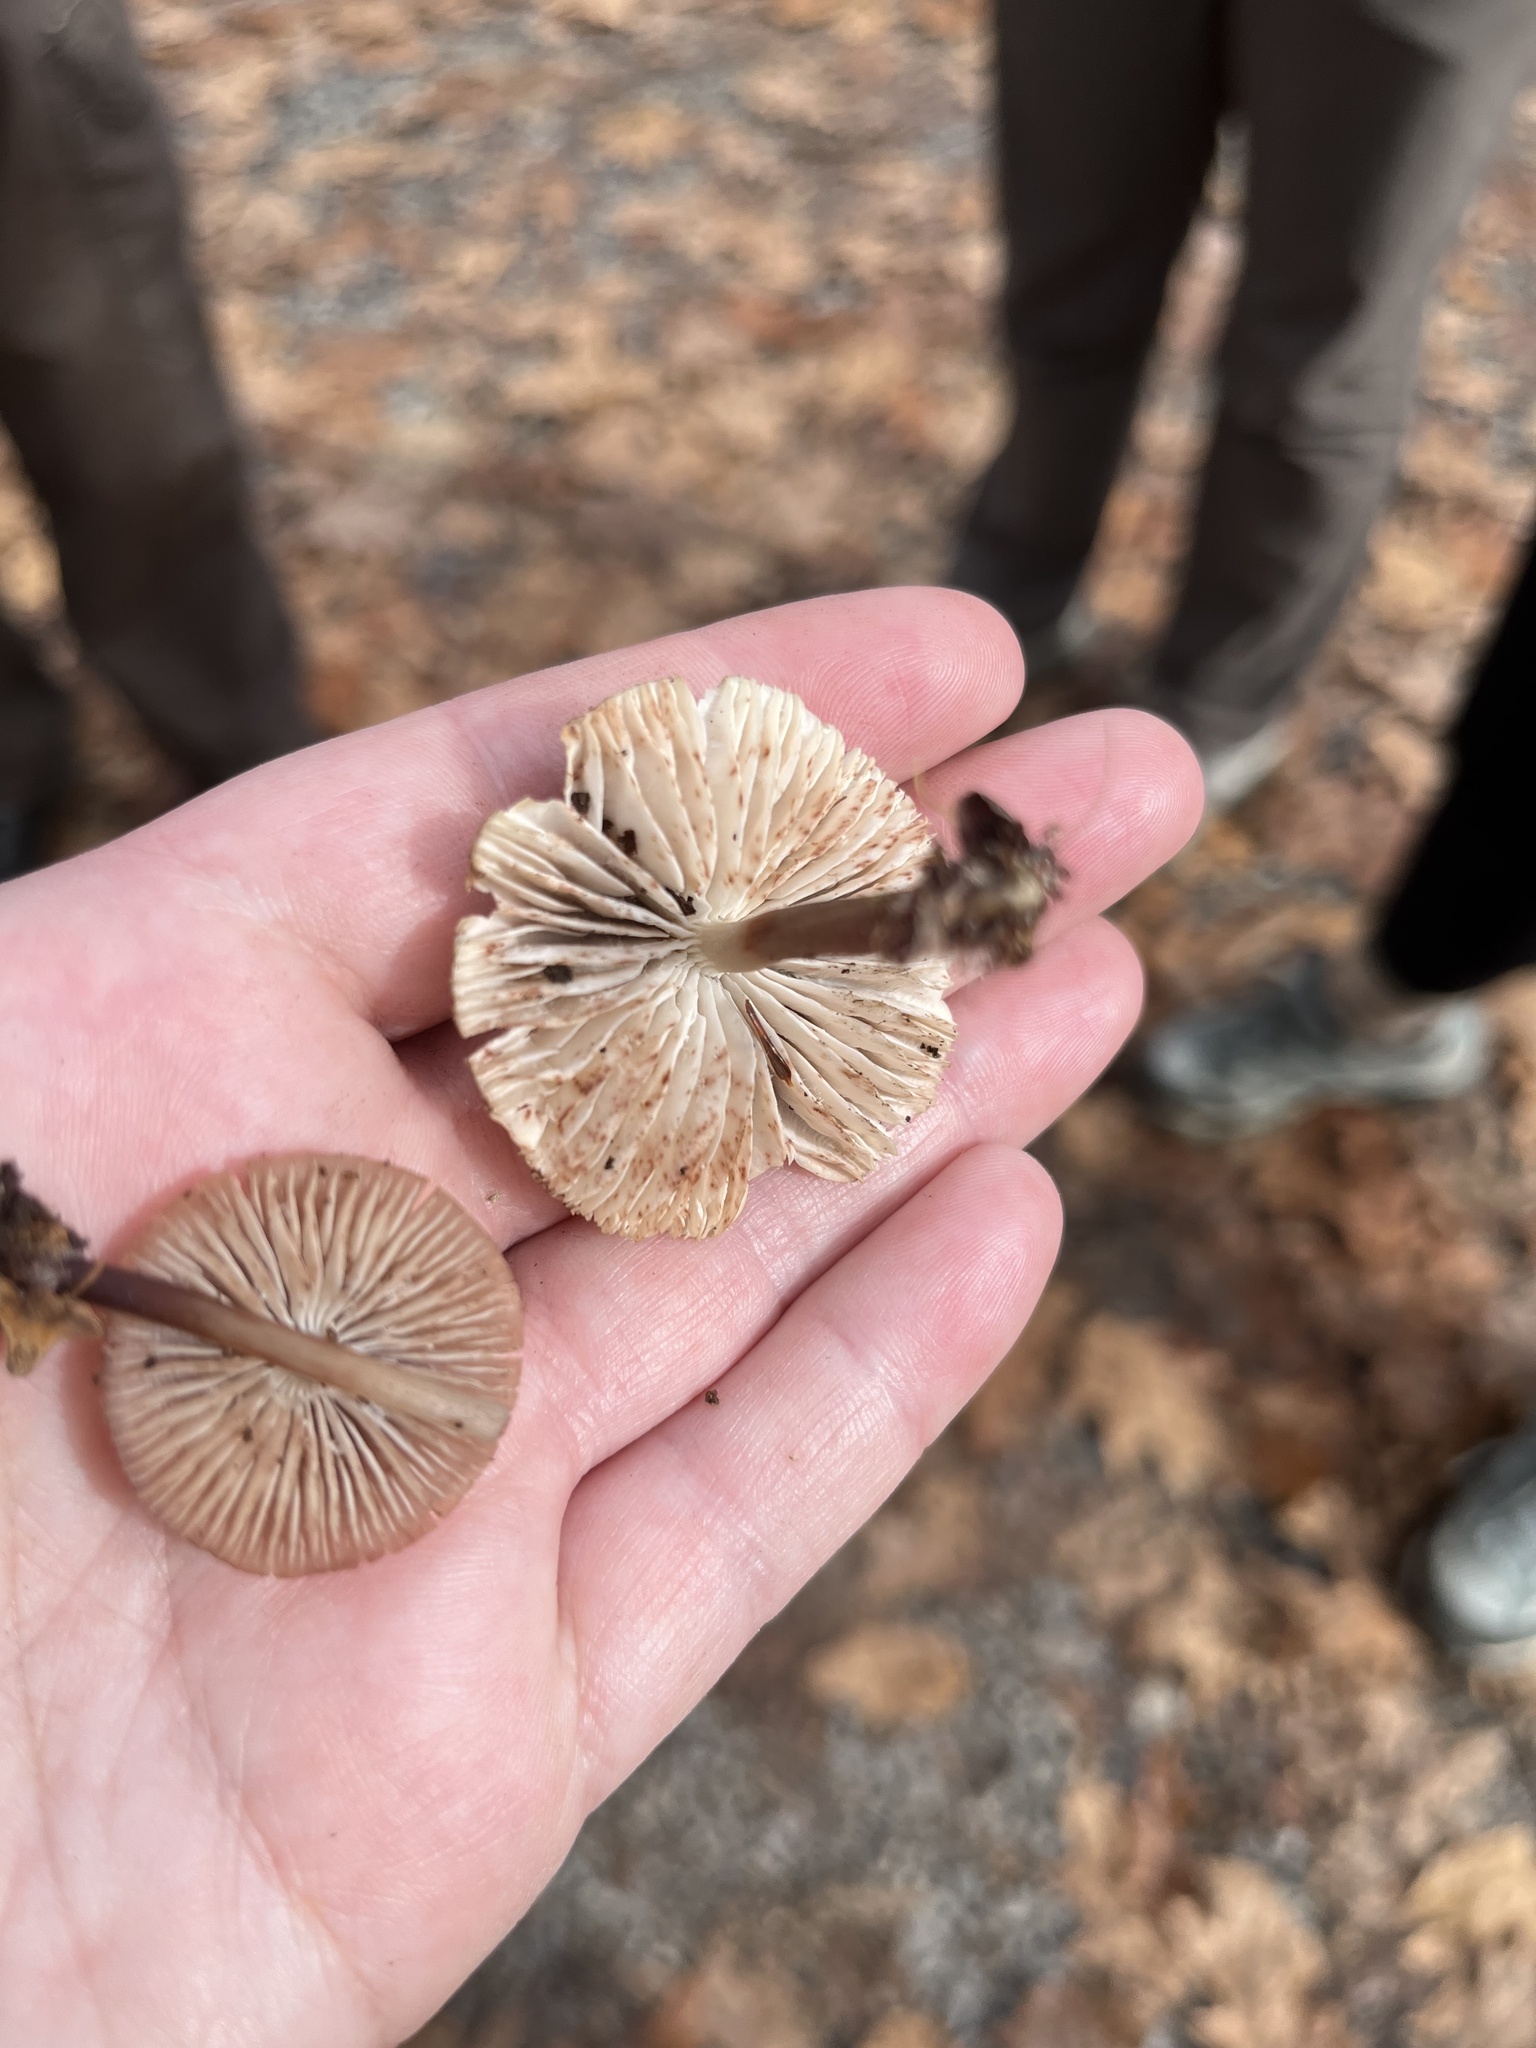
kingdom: Fungi
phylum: Basidiomycota
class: Agaricomycetes
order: Agaricales
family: Mycenaceae
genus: Mycena
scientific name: Mycena maculata
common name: Stained bonnet
